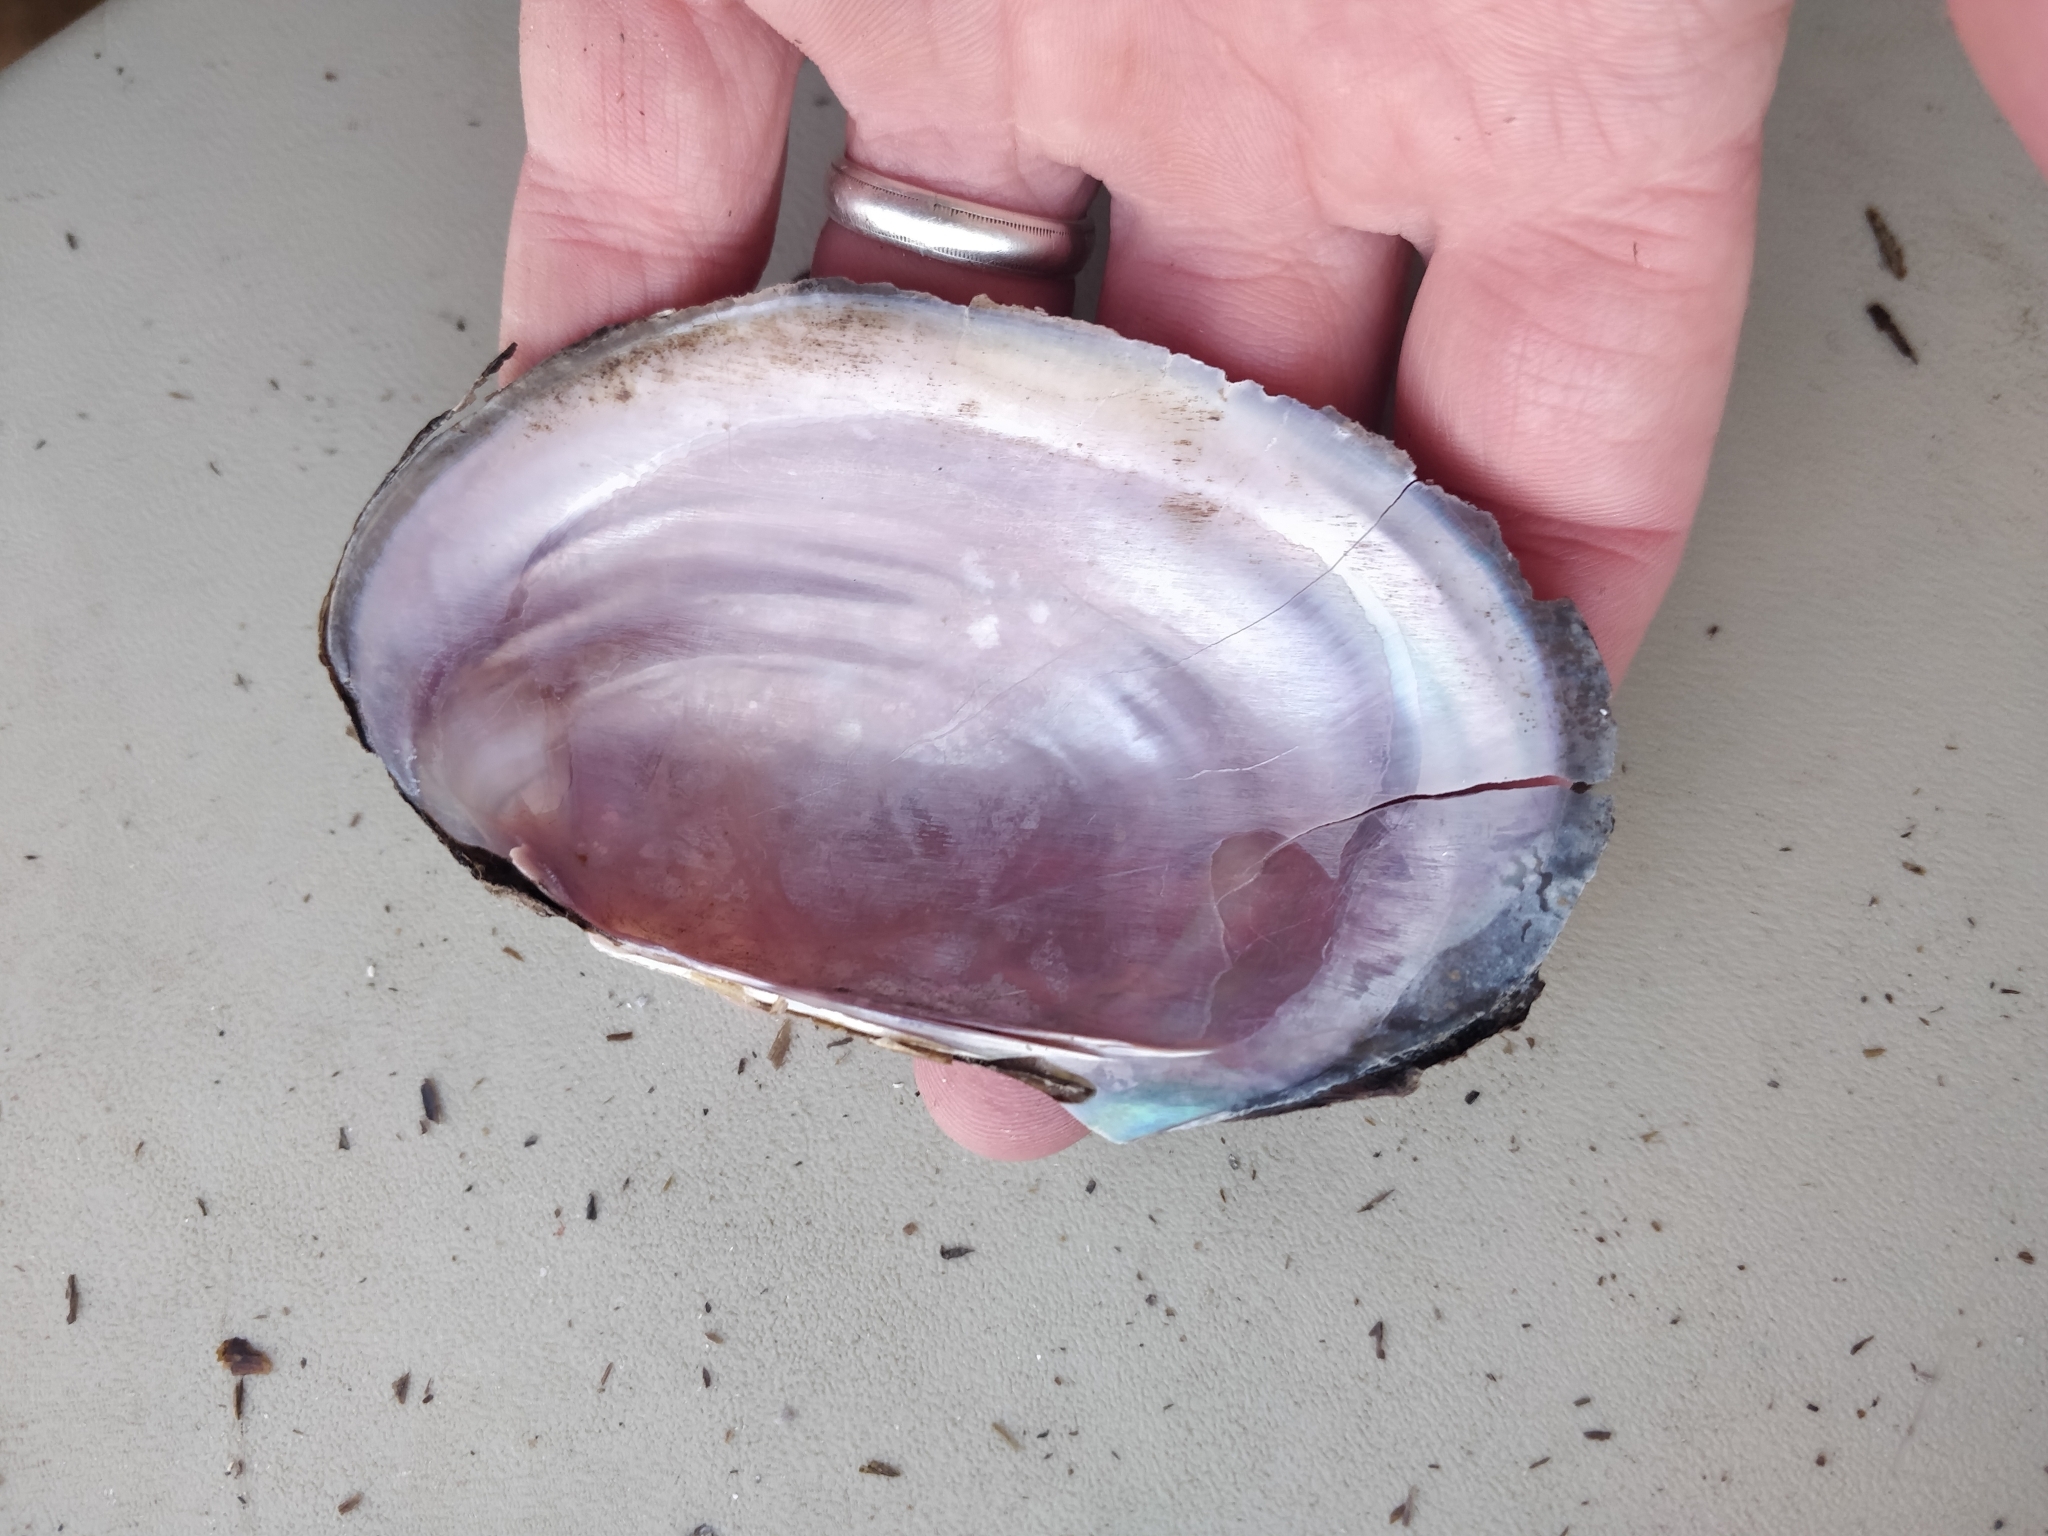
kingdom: Animalia
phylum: Mollusca
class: Bivalvia
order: Unionida
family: Unionidae
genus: Potamilus
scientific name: Potamilus ohiensis
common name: Pink papershell
